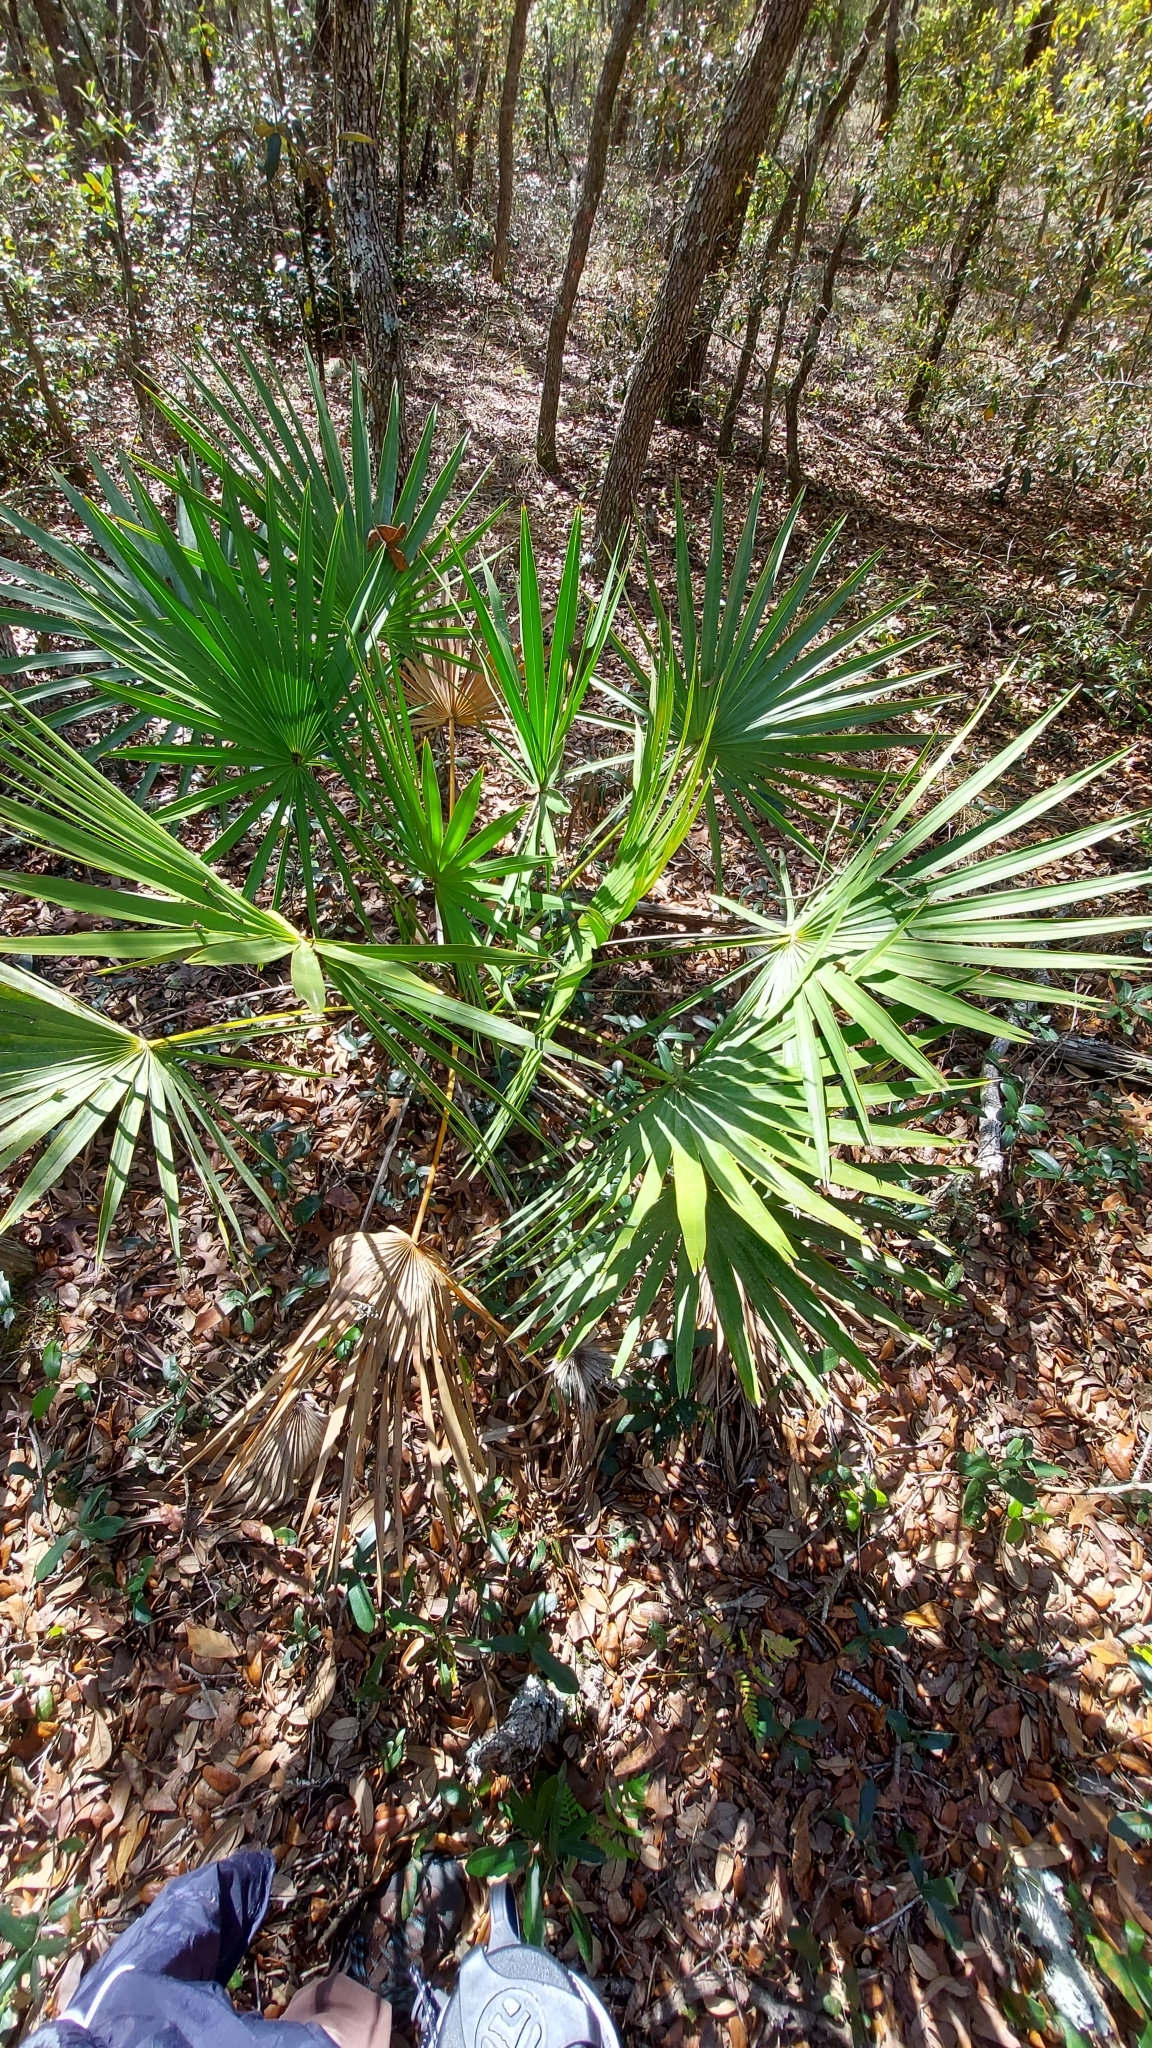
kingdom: Plantae
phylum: Tracheophyta
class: Liliopsida
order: Arecales
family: Arecaceae
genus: Serenoa
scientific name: Serenoa repens
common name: Saw-palmetto
